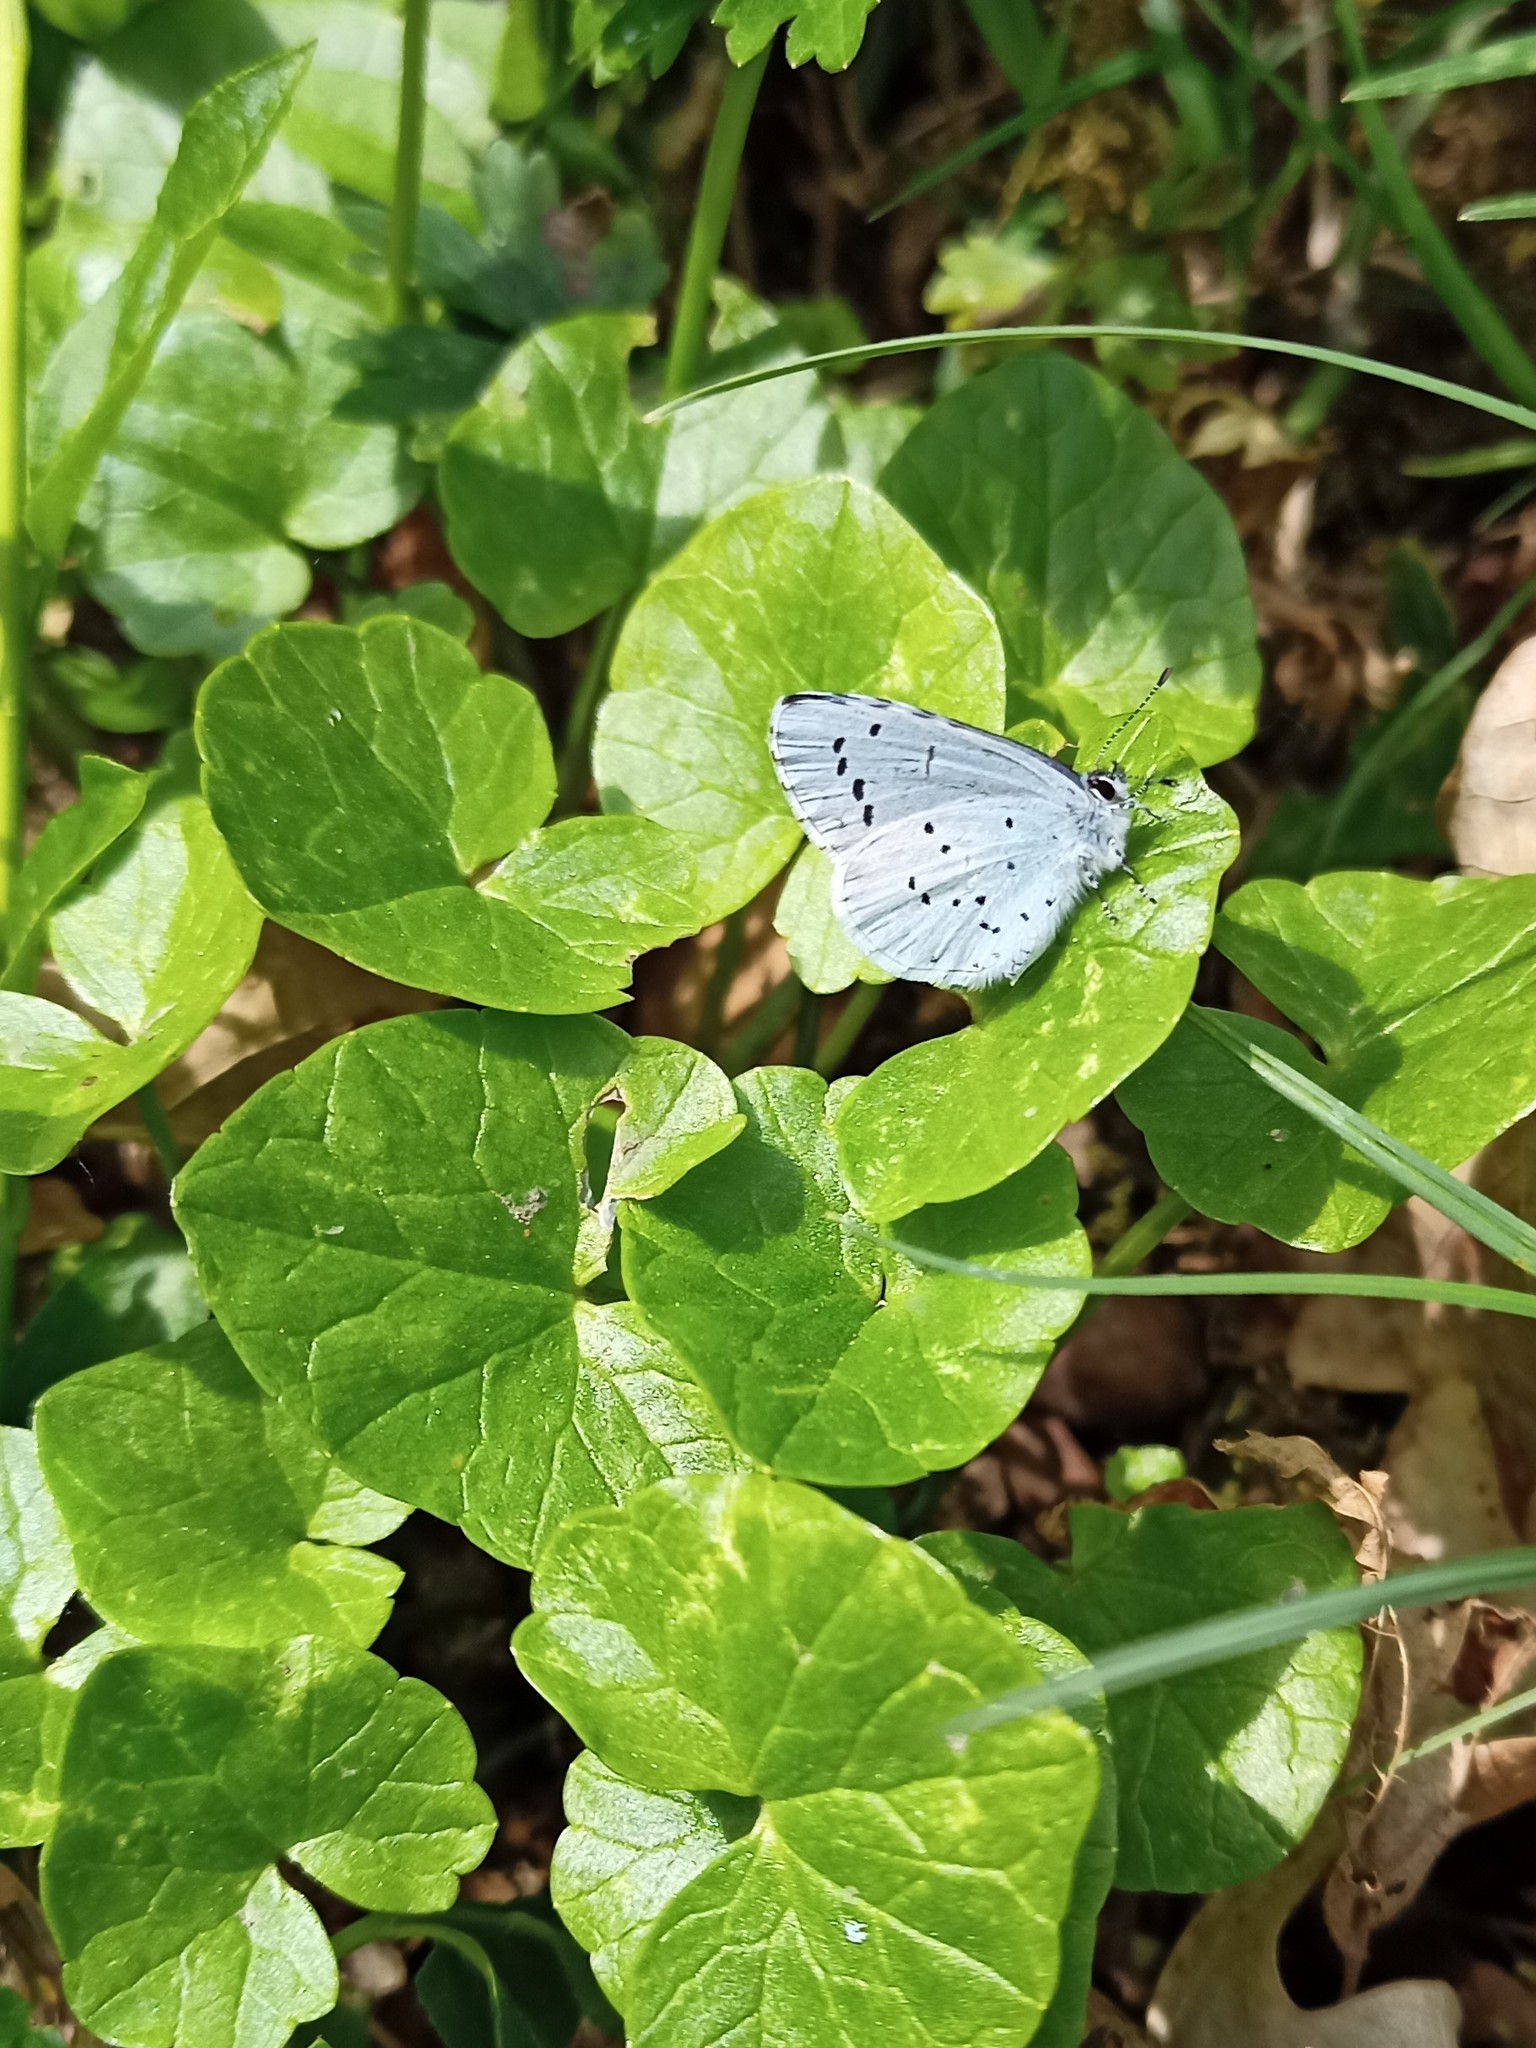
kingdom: Animalia
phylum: Arthropoda
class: Insecta
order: Lepidoptera
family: Lycaenidae
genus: Celastrina
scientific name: Celastrina argiolus
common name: Holly blue
